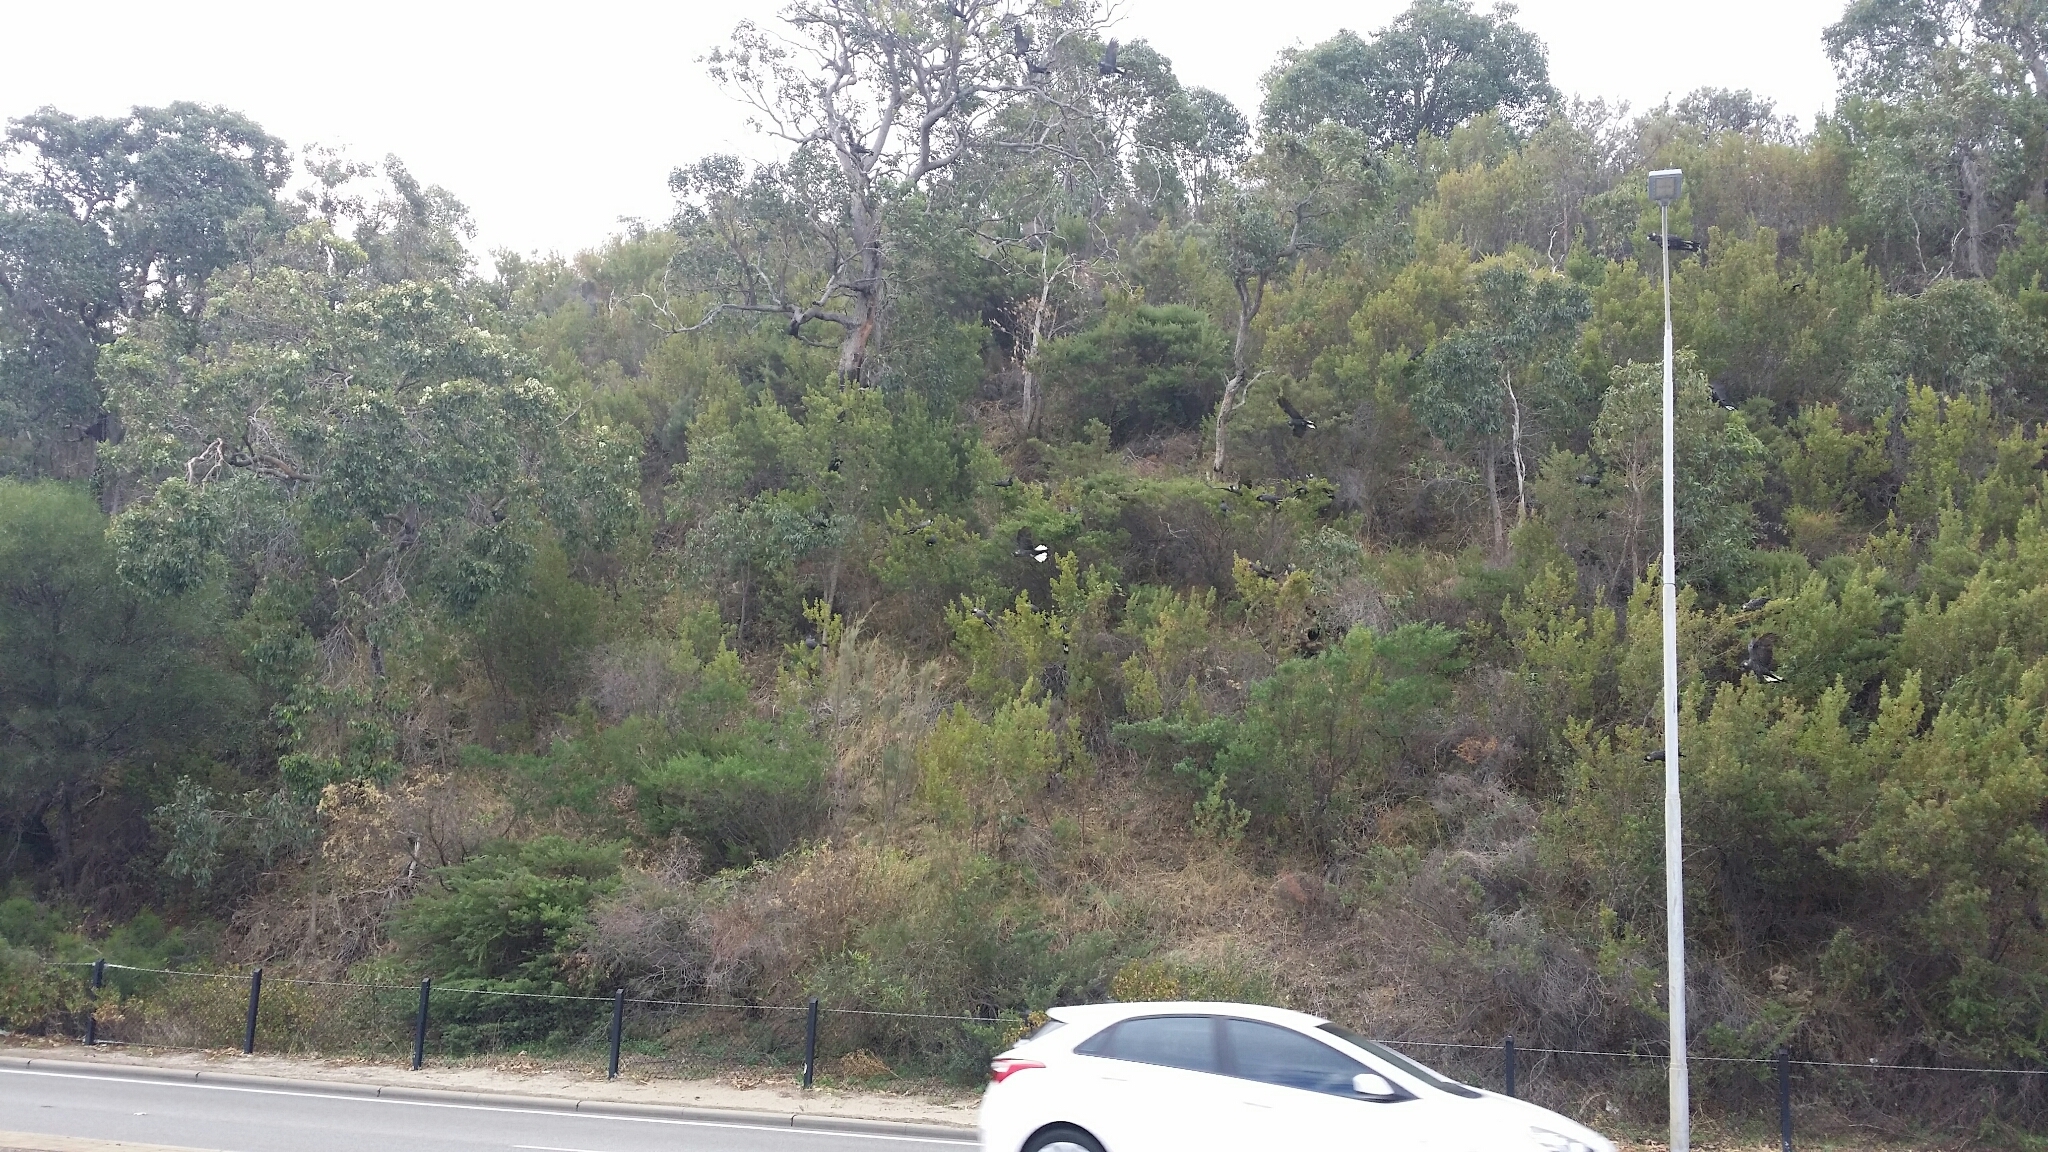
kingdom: Animalia
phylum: Chordata
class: Aves
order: Psittaciformes
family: Cacatuidae
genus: Zanda
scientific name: Zanda latirostris
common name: Short-billed black-cockatoo
